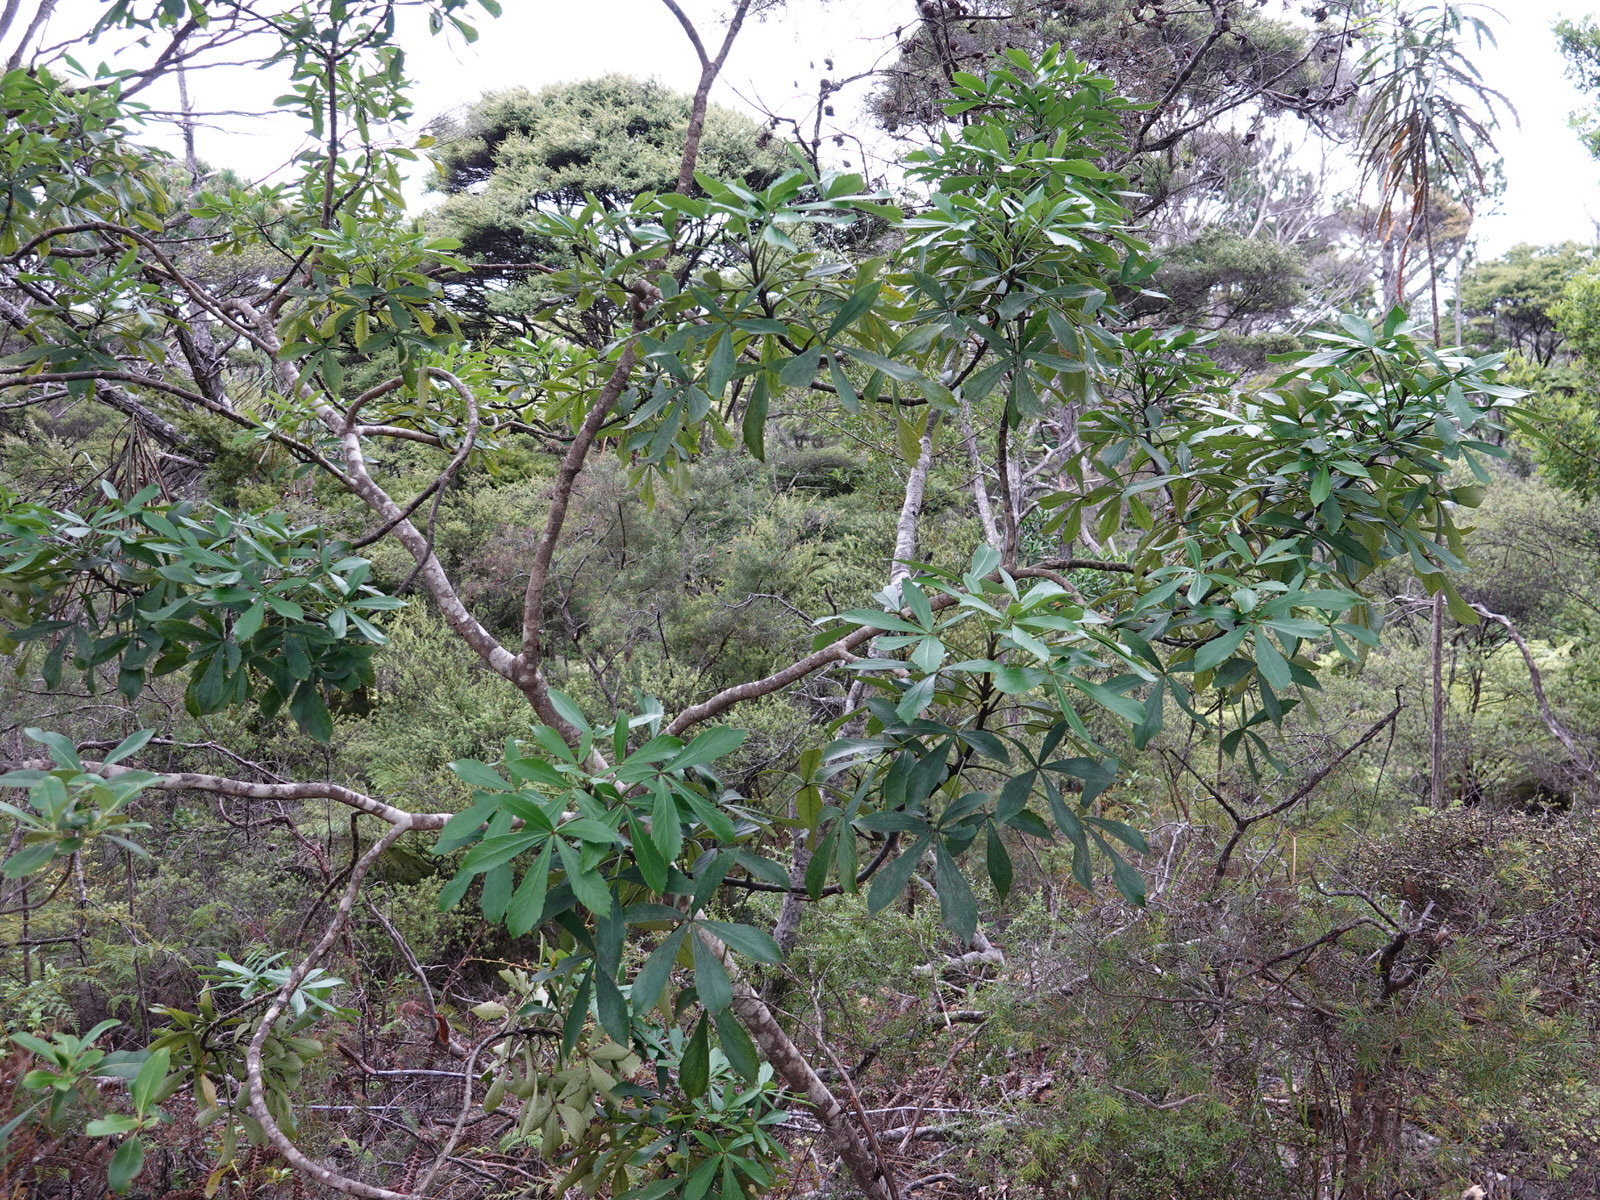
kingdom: Plantae
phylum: Tracheophyta
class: Magnoliopsida
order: Apiales
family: Araliaceae
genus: Pseudopanax
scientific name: Pseudopanax lessonii
